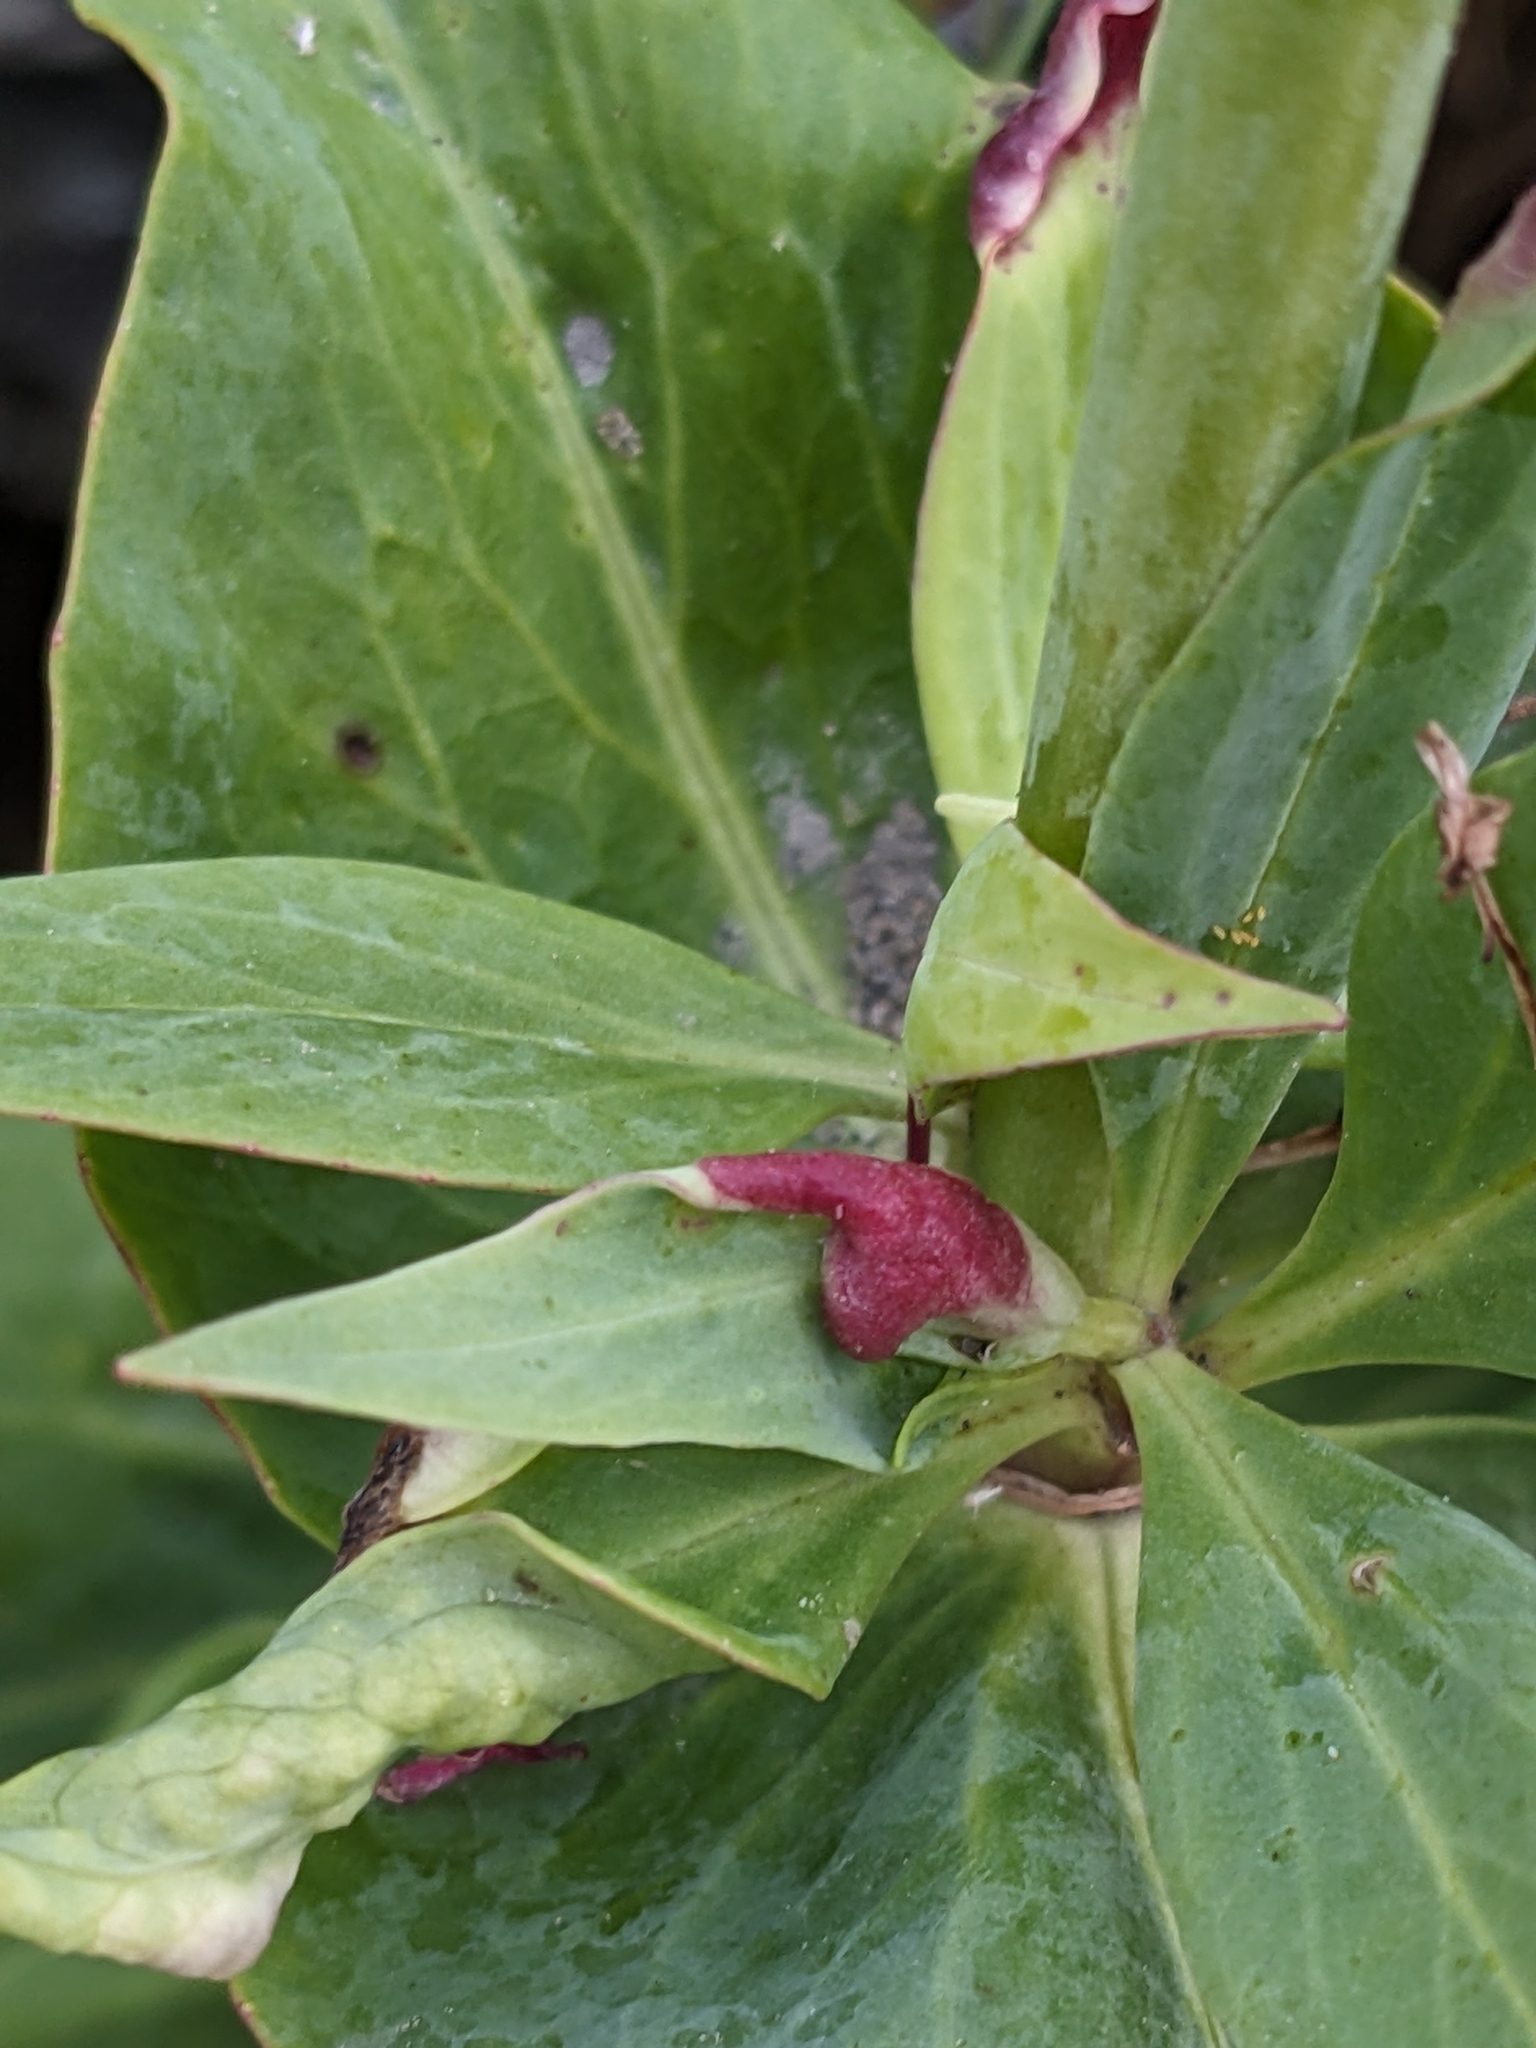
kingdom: Animalia
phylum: Arthropoda
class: Insecta
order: Hemiptera
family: Triozidae
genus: Trioza
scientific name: Trioza centranthi
